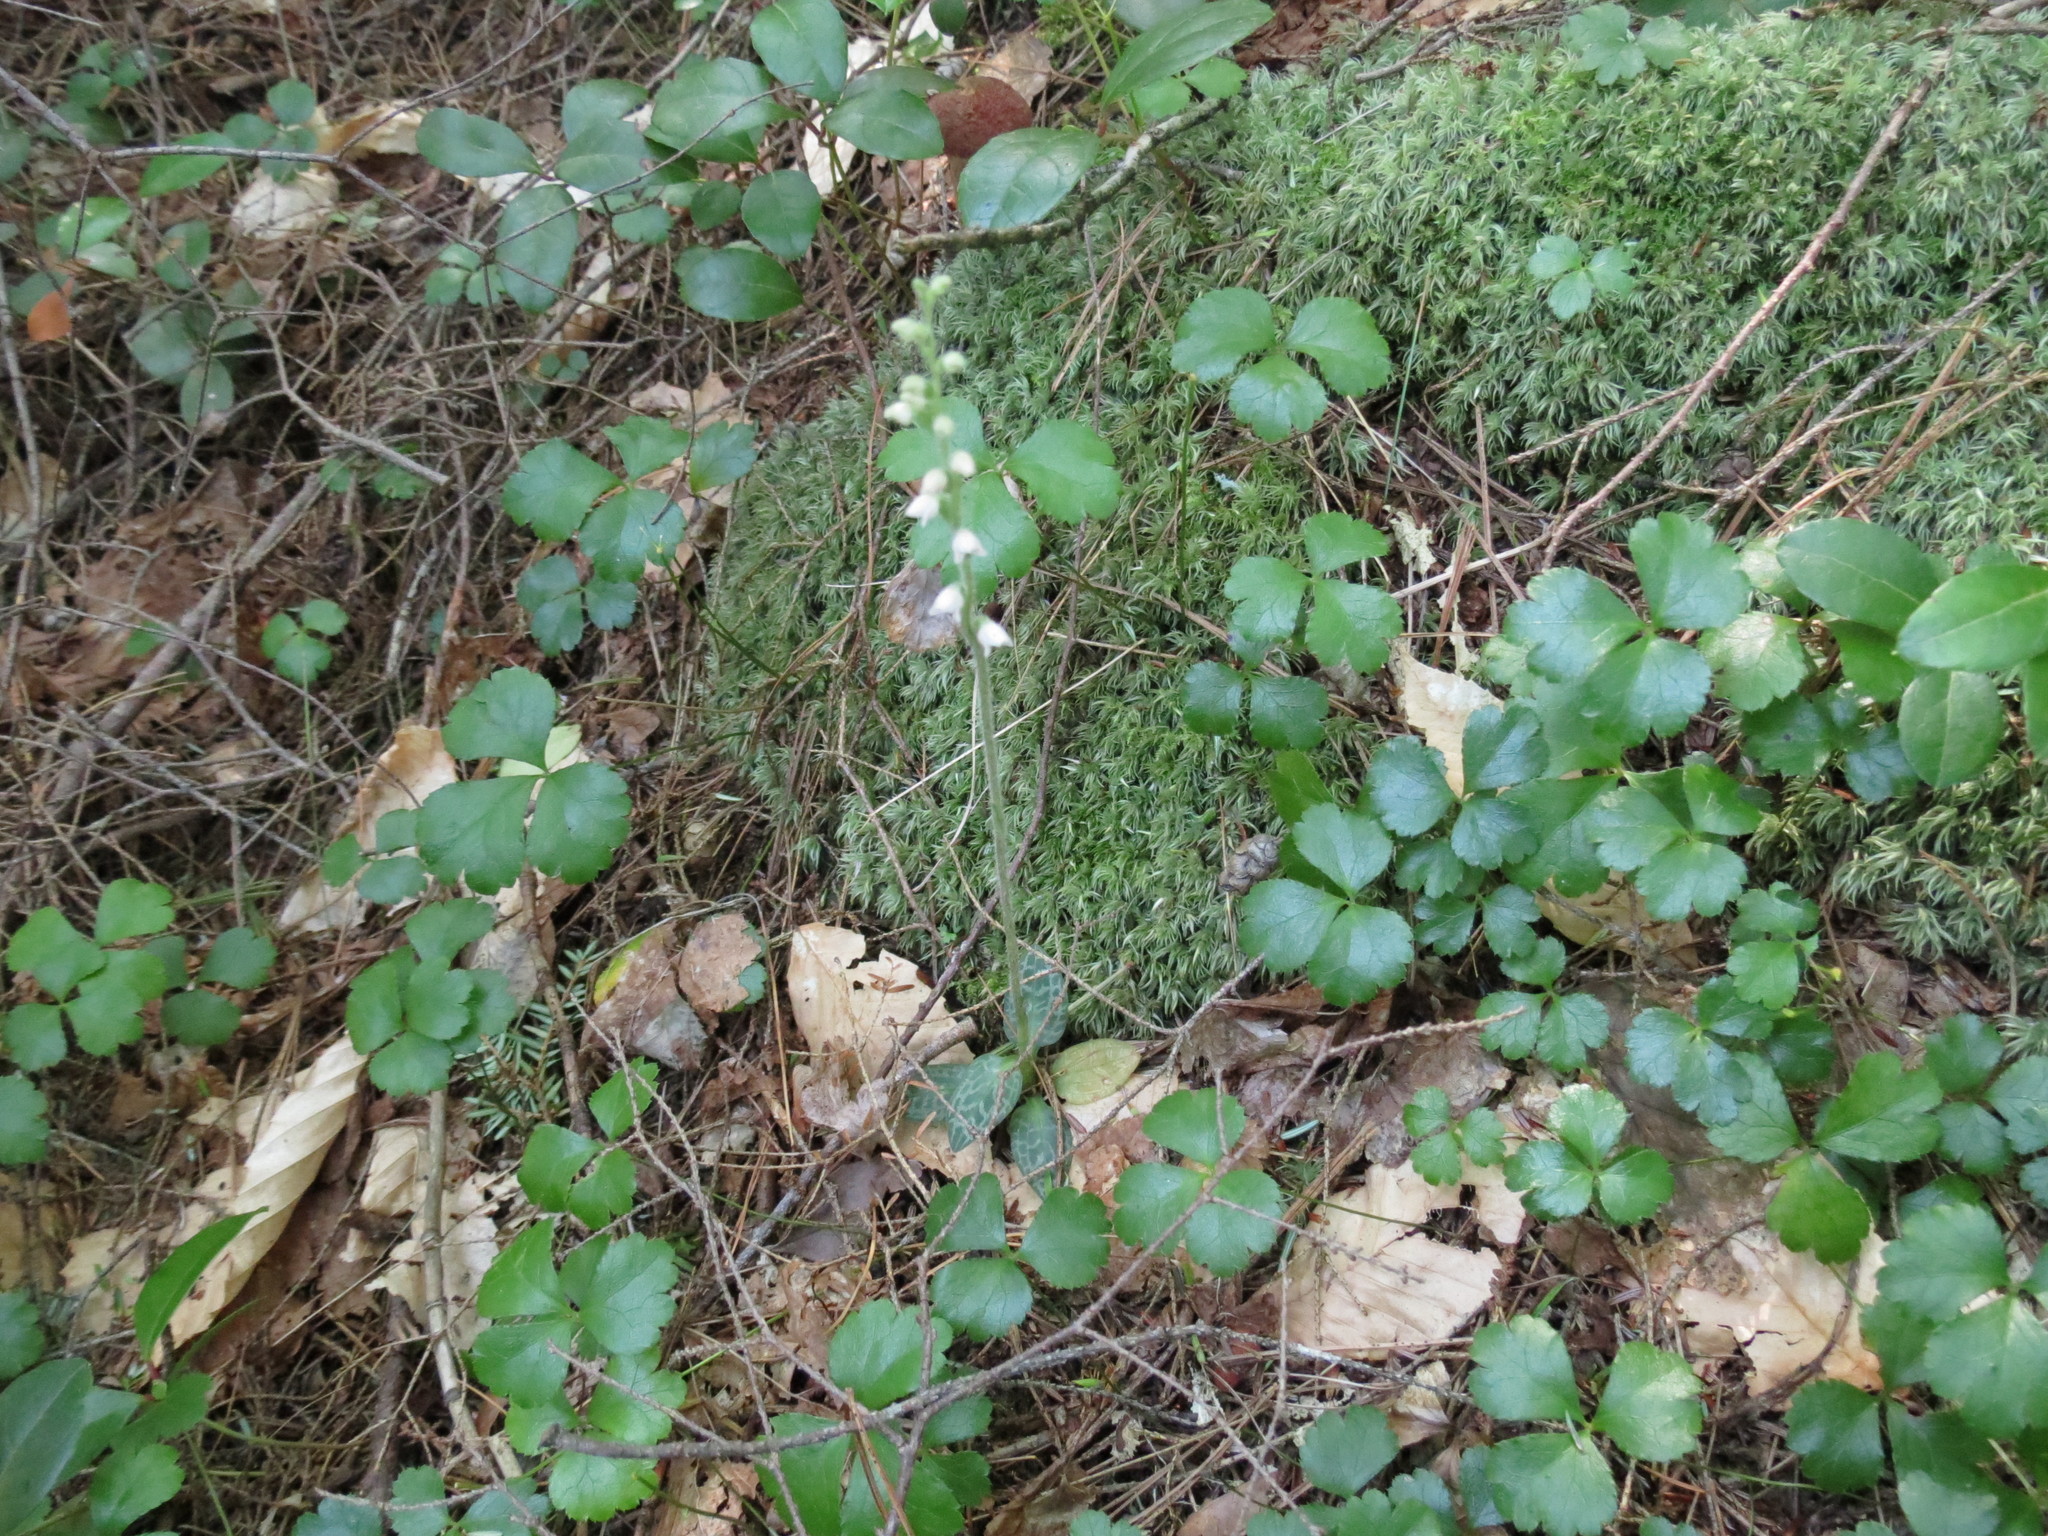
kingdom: Plantae
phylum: Tracheophyta
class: Liliopsida
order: Asparagales
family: Orchidaceae
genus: Goodyera
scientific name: Goodyera repens
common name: Creeping lady's-tresses
